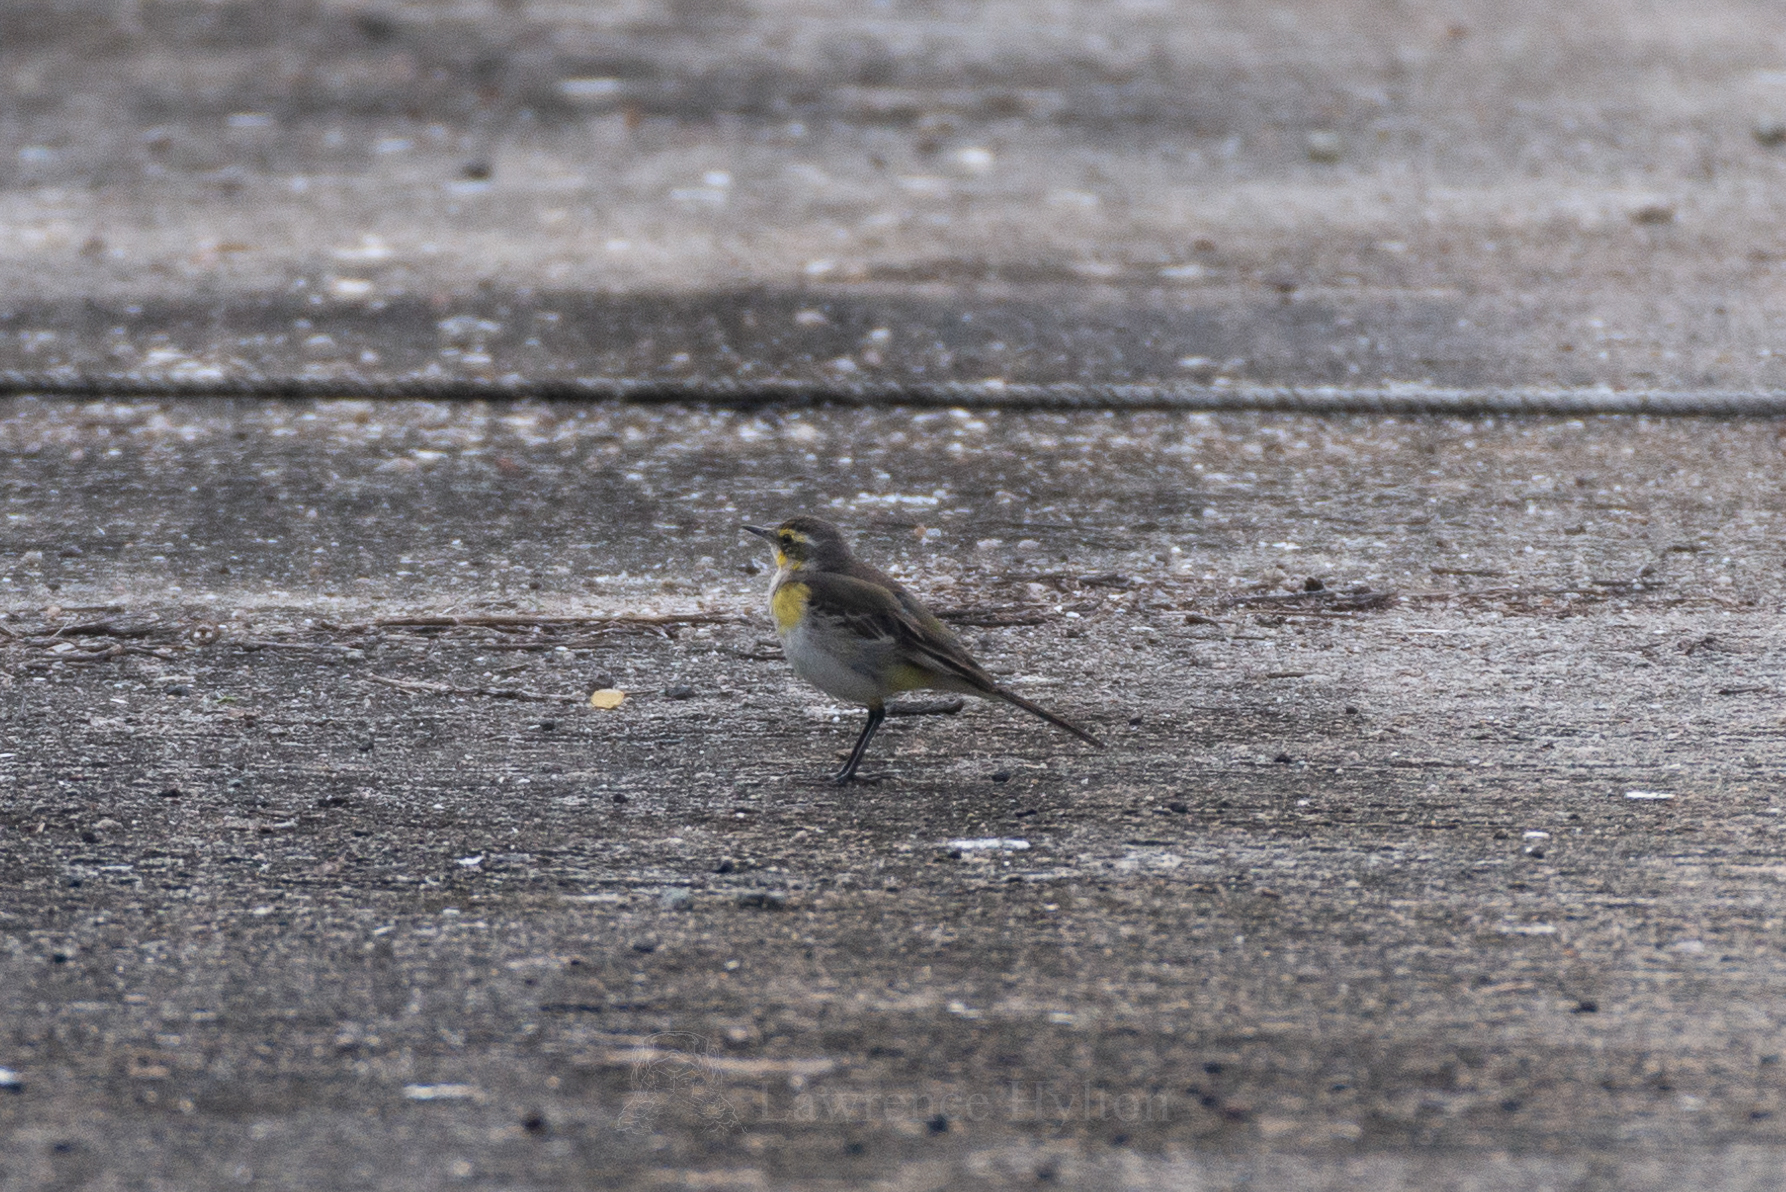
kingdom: Animalia
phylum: Chordata
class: Aves
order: Passeriformes
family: Motacillidae
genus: Motacilla
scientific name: Motacilla tschutschensis
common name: Eastern yellow wagtail
